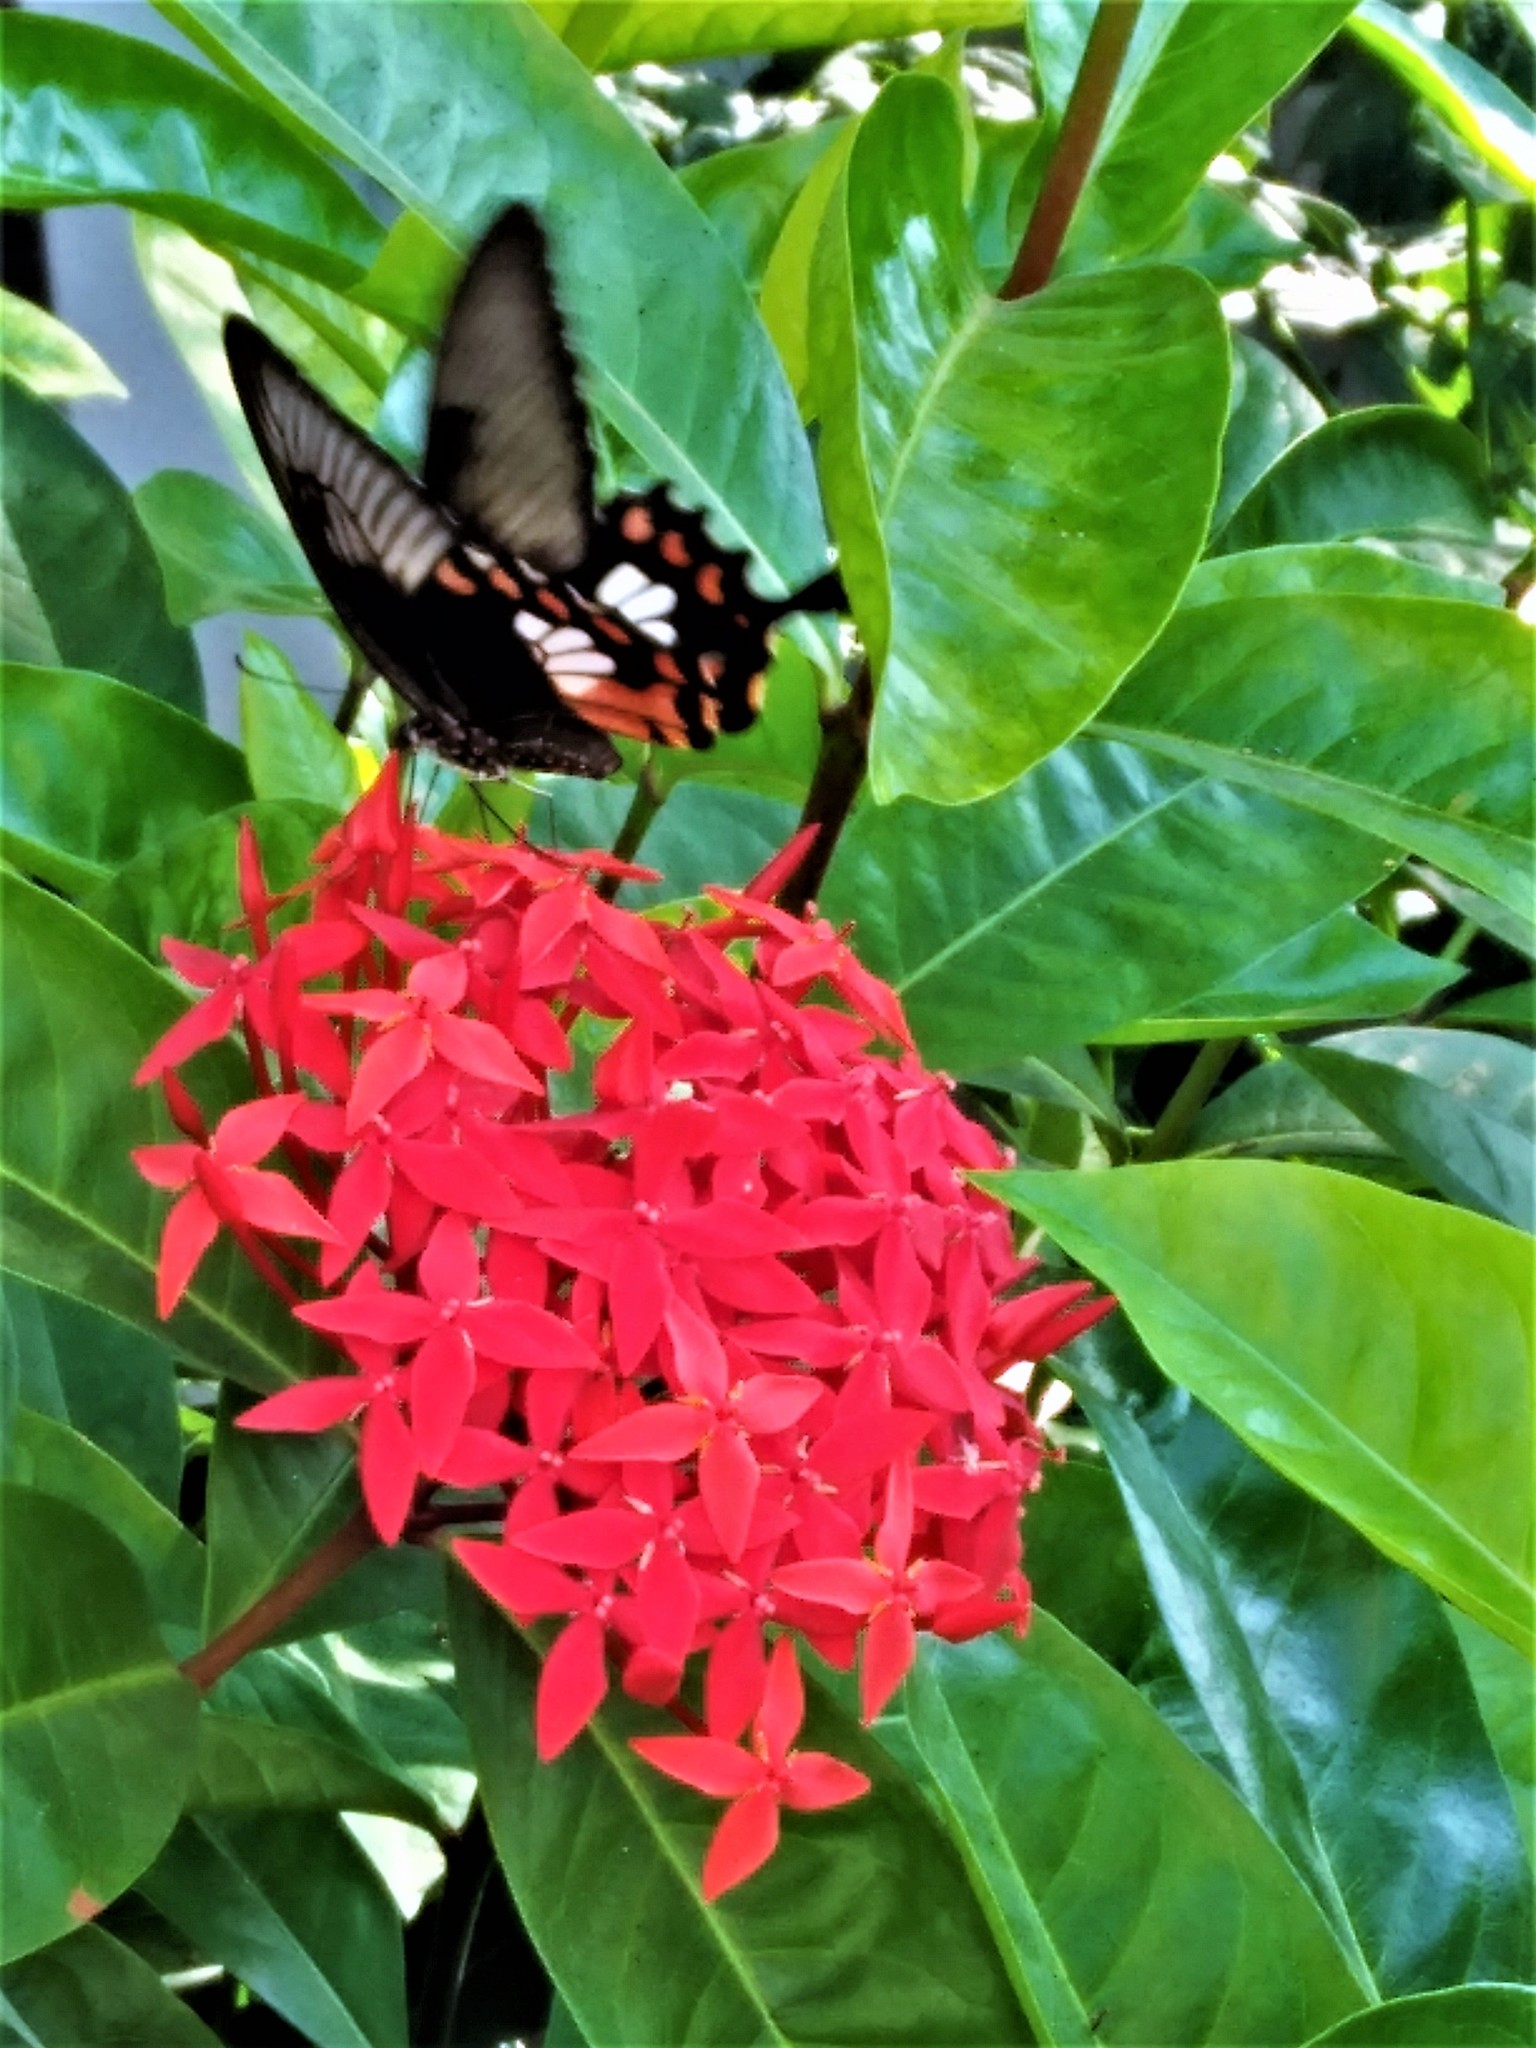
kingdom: Animalia
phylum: Arthropoda
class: Insecta
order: Lepidoptera
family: Papilionidae
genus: Papilio
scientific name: Papilio polytes
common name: Common mormon
